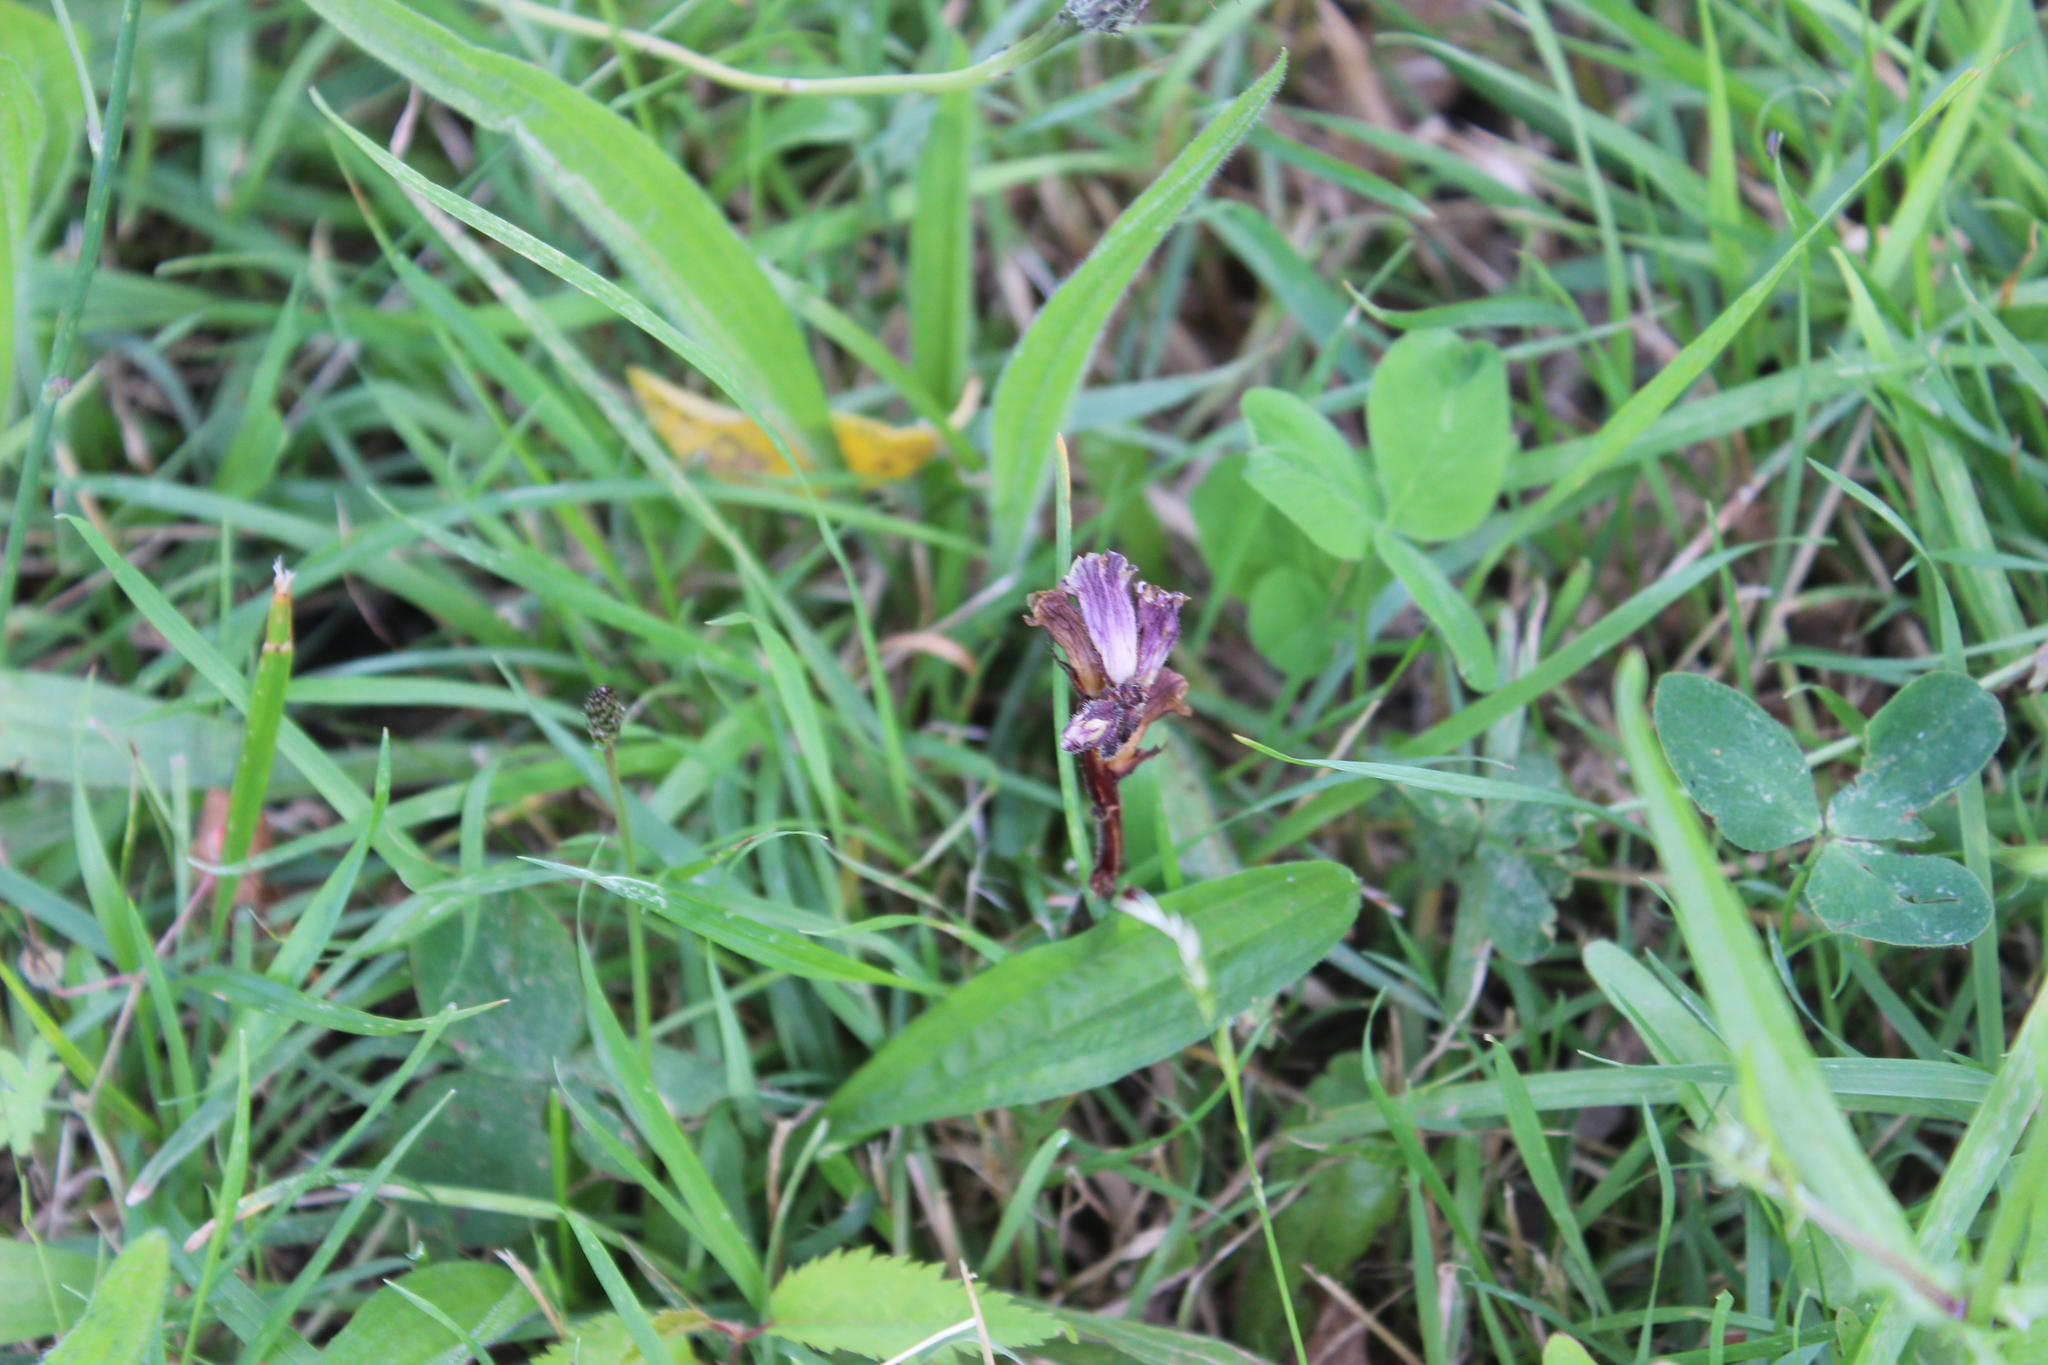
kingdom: Plantae
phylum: Tracheophyta
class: Magnoliopsida
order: Lamiales
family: Orobanchaceae
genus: Orobanche
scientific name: Orobanche minor
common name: Common broomrape
